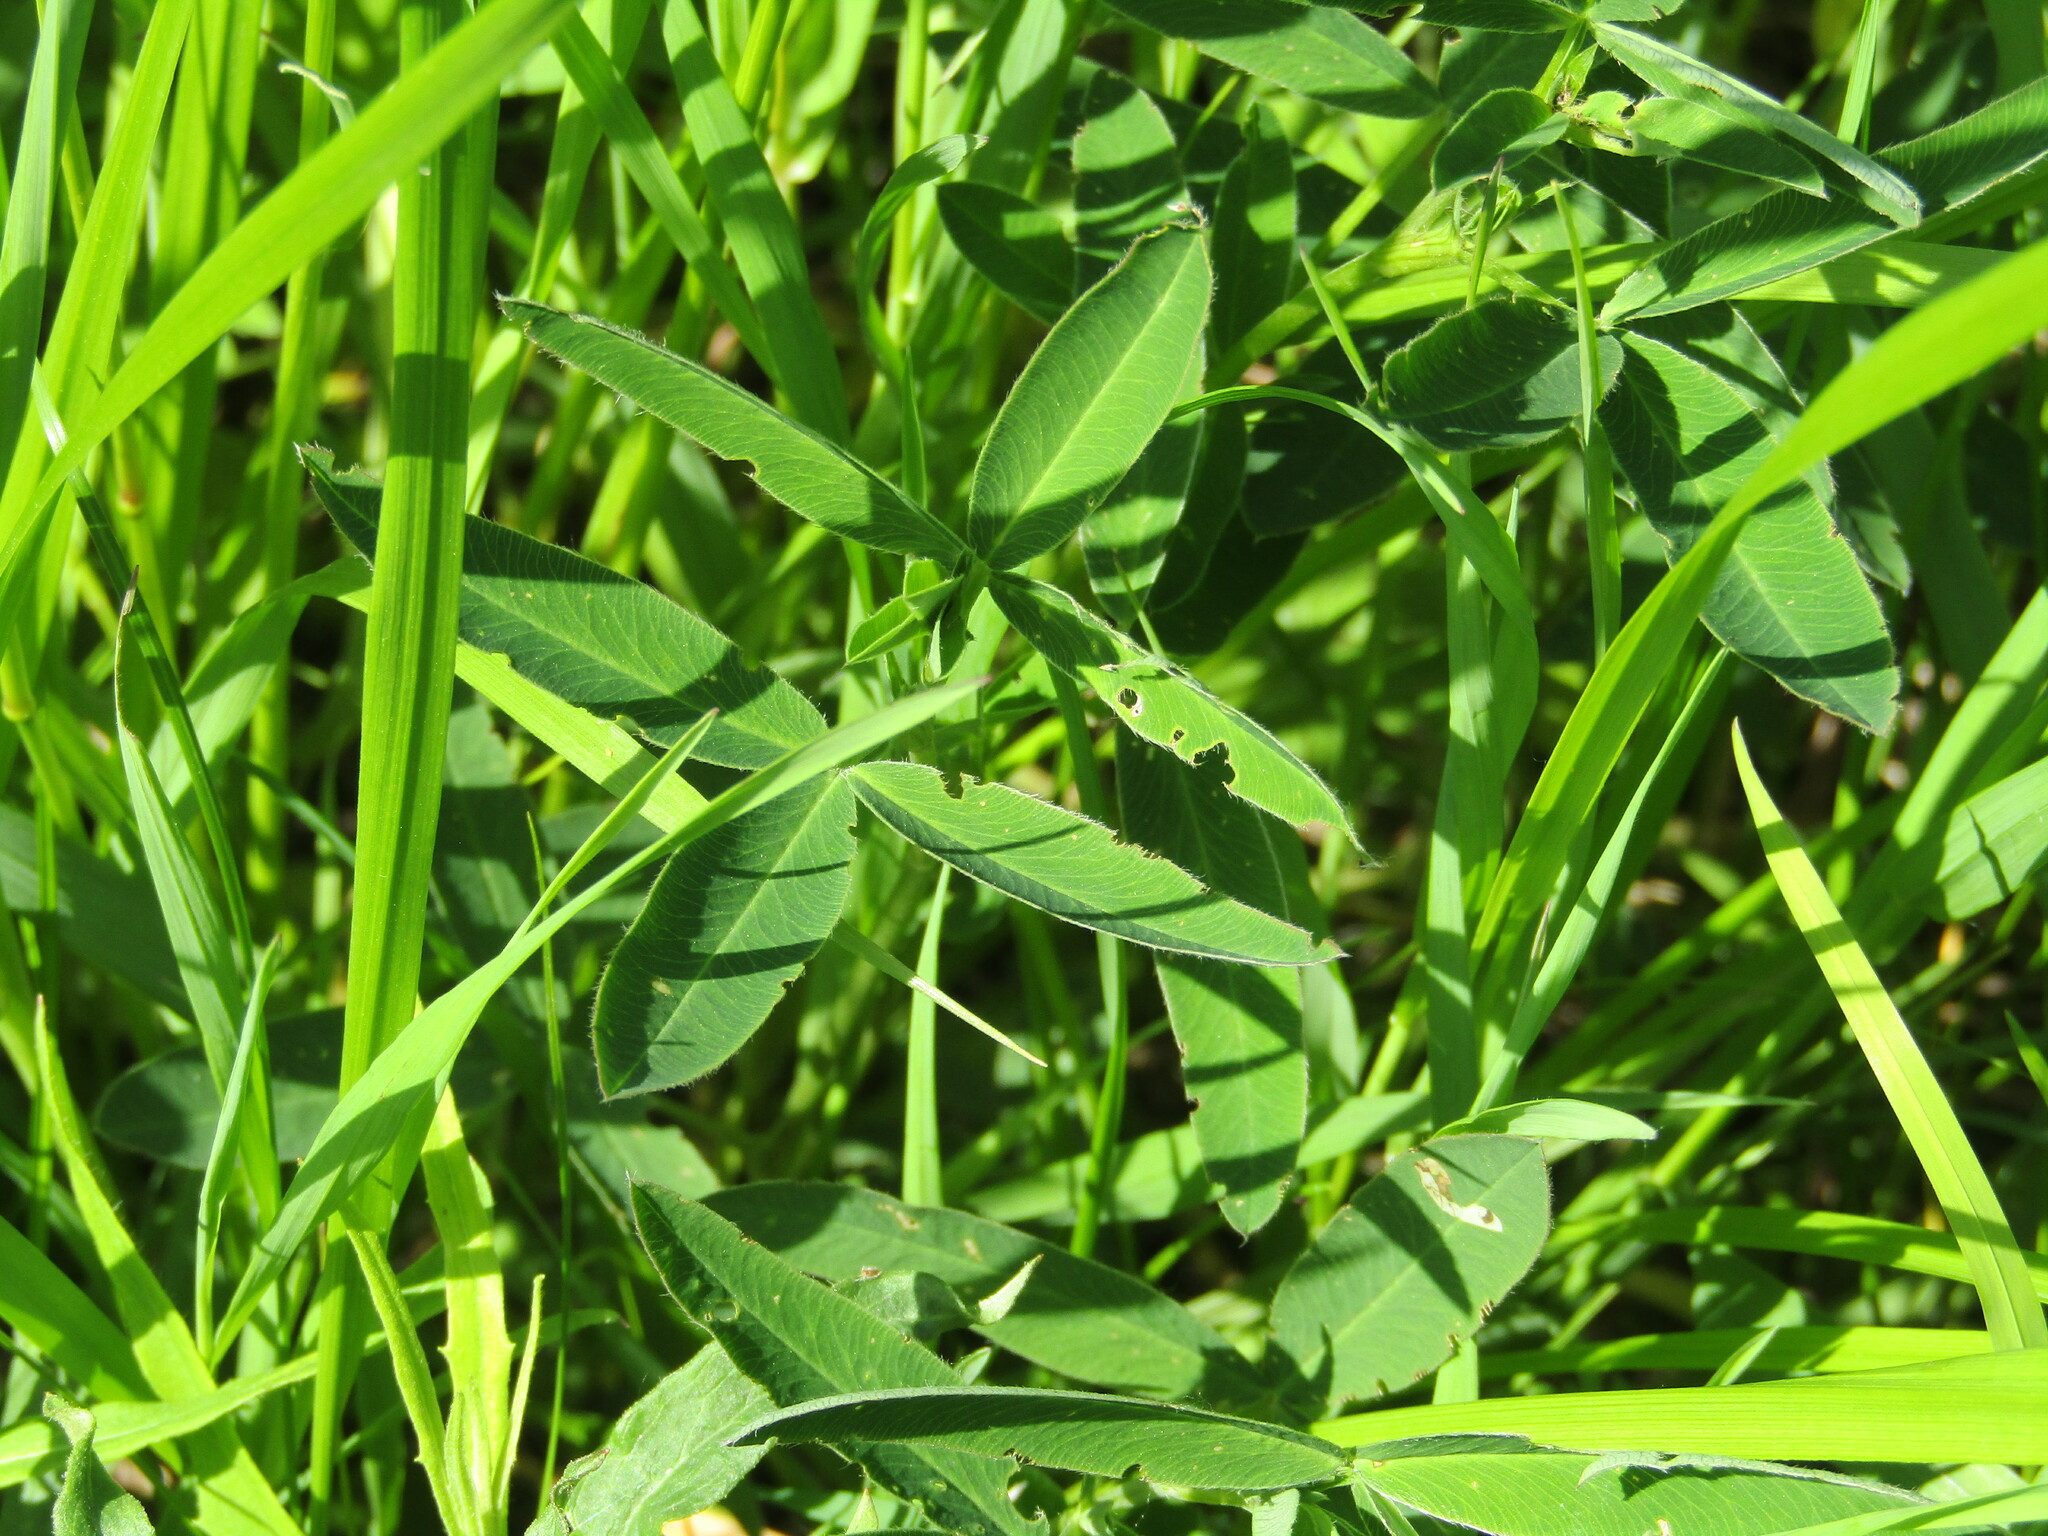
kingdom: Plantae
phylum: Tracheophyta
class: Magnoliopsida
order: Fabales
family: Fabaceae
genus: Trifolium
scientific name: Trifolium medium
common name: Zigzag clover
